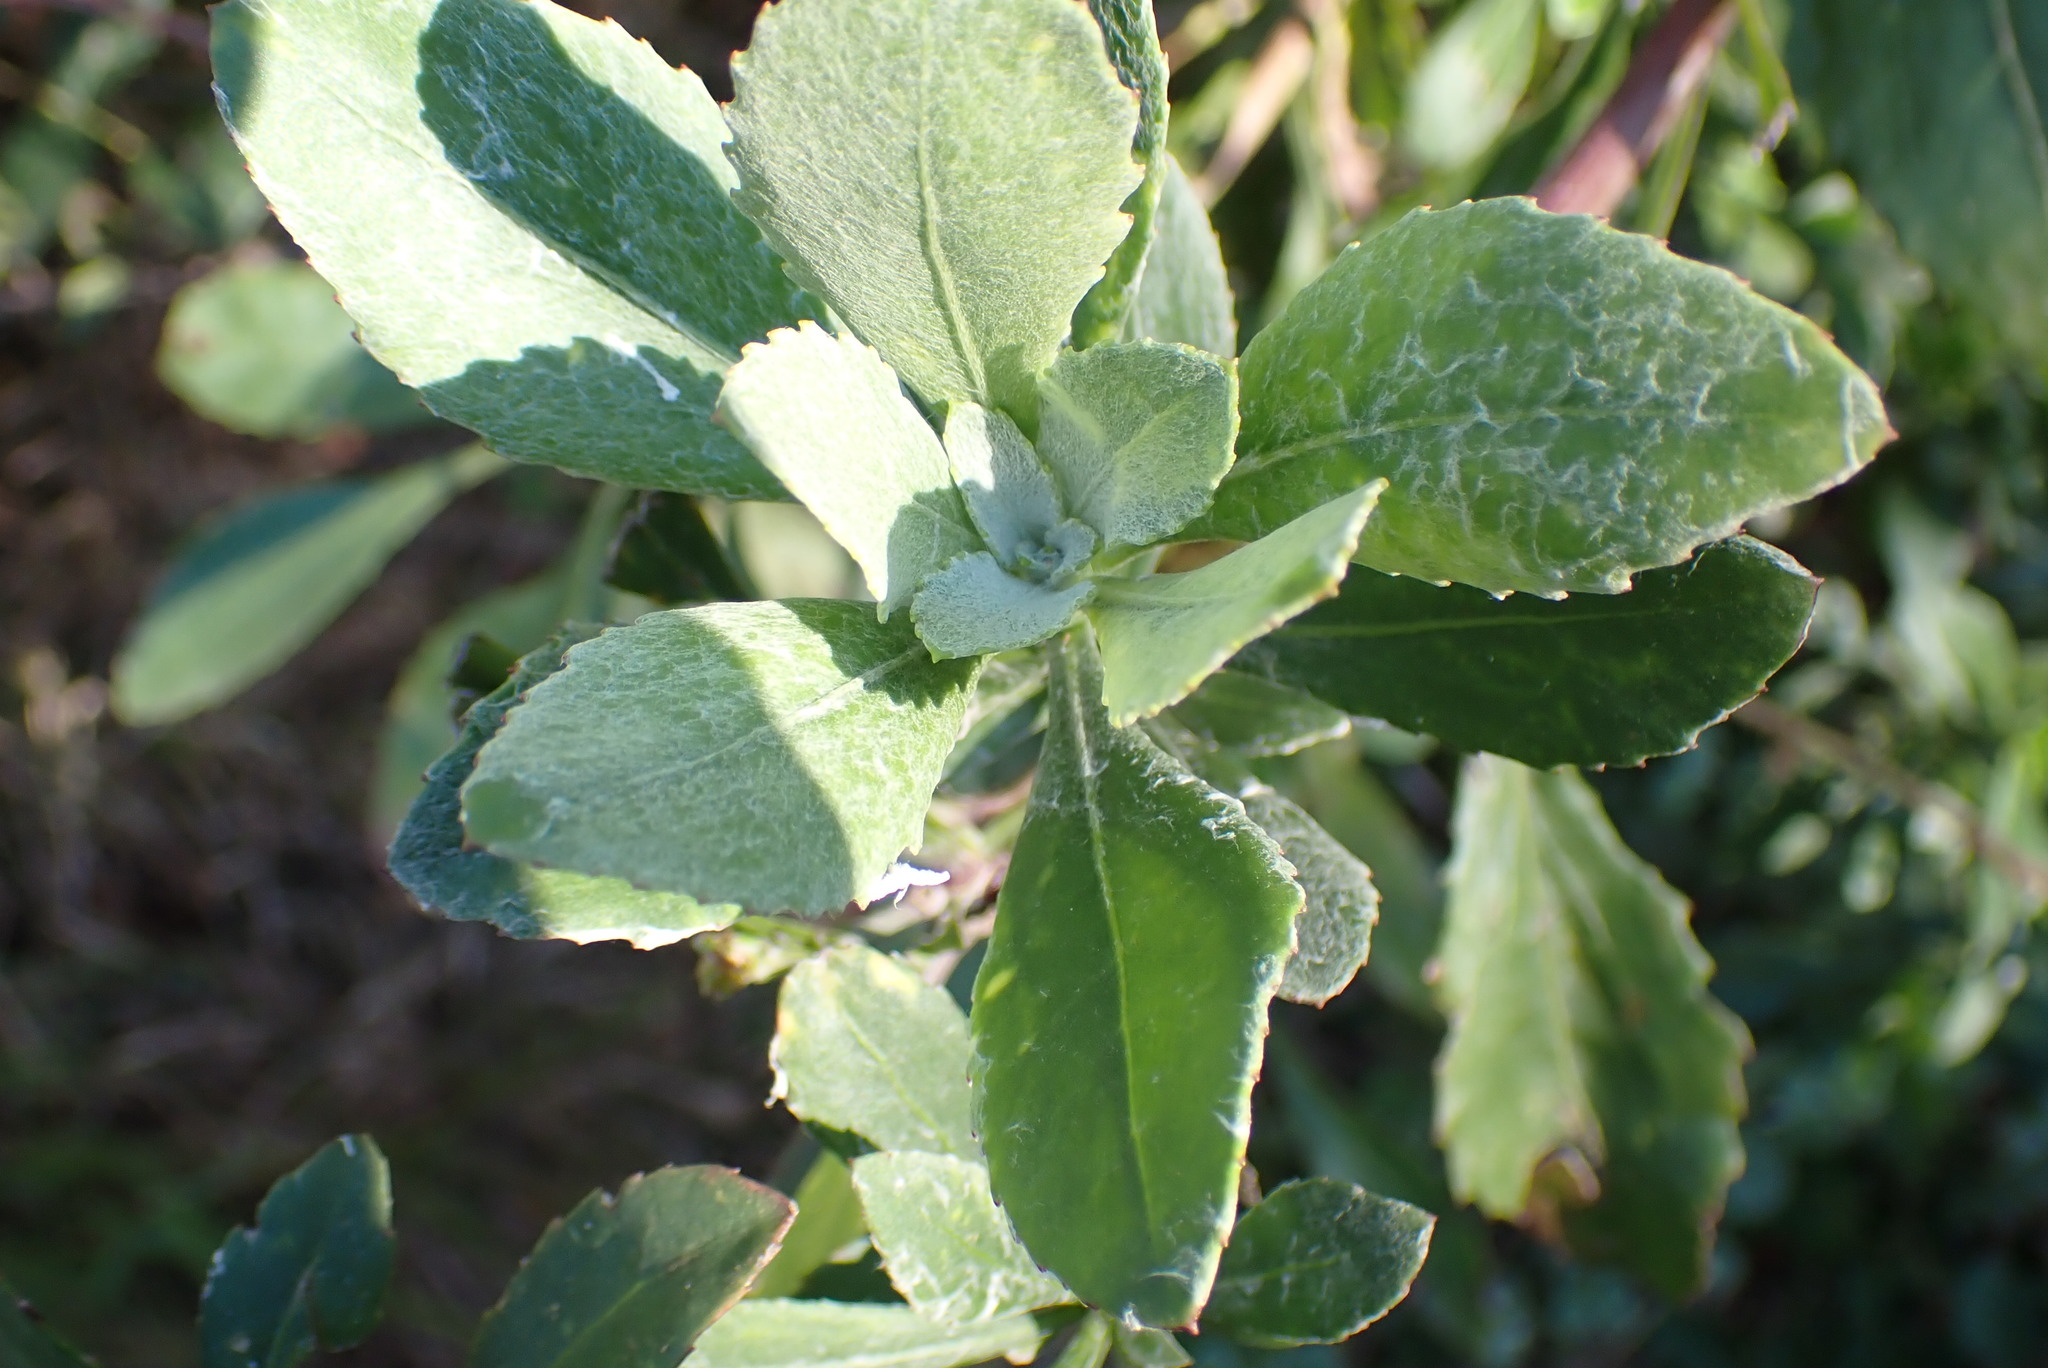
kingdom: Plantae
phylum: Tracheophyta
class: Magnoliopsida
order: Asterales
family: Asteraceae
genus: Osteospermum
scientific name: Osteospermum moniliferum
